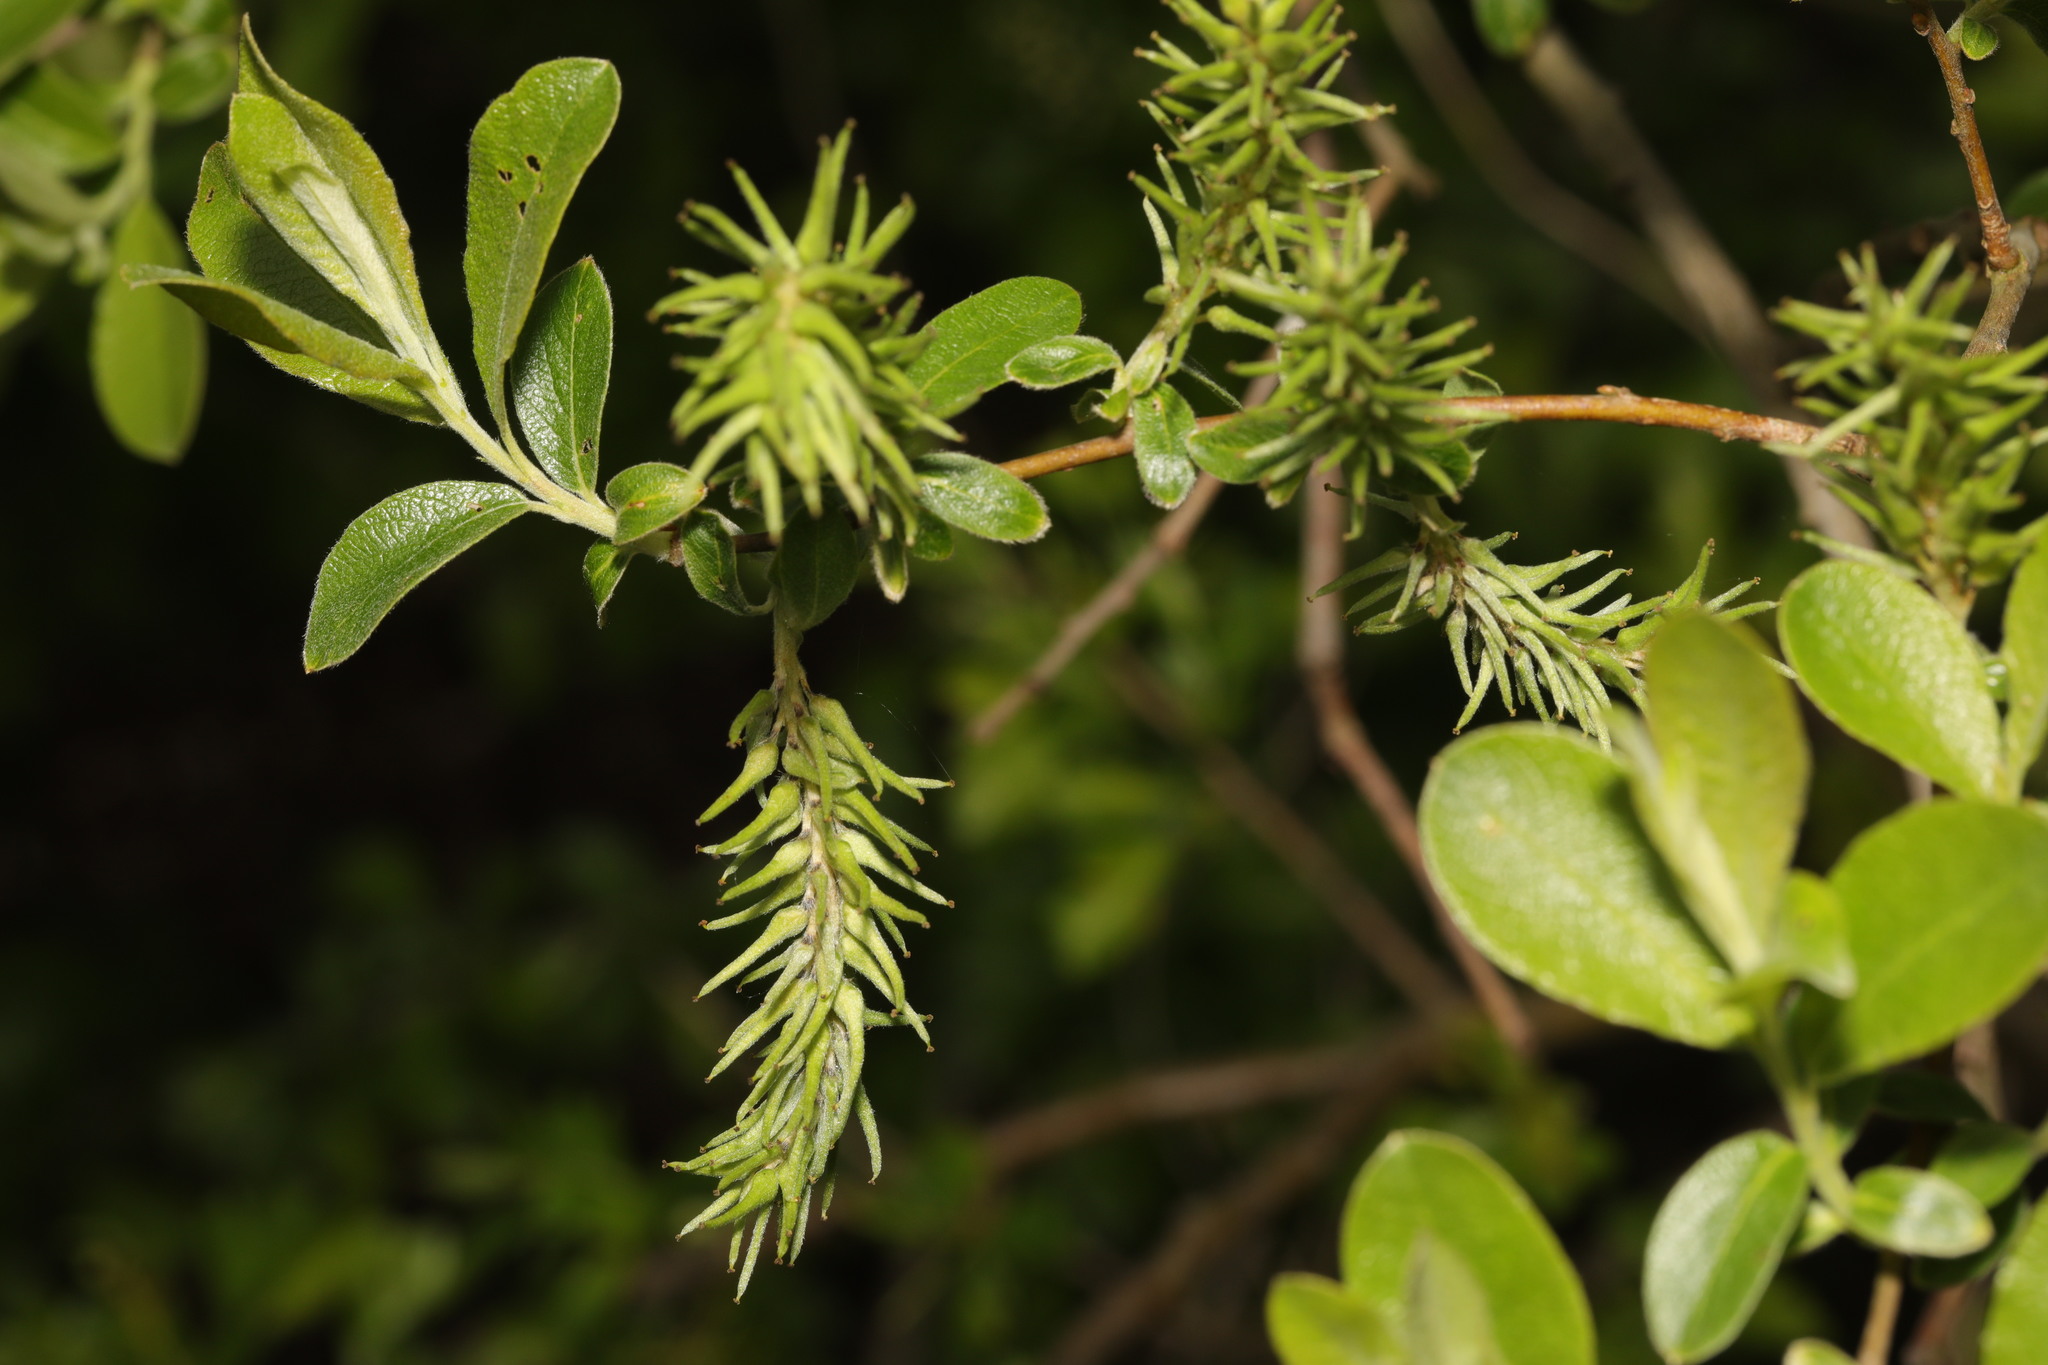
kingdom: Plantae
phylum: Tracheophyta
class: Magnoliopsida
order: Malpighiales
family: Salicaceae
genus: Salix
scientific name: Salix cinerea
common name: Common sallow
